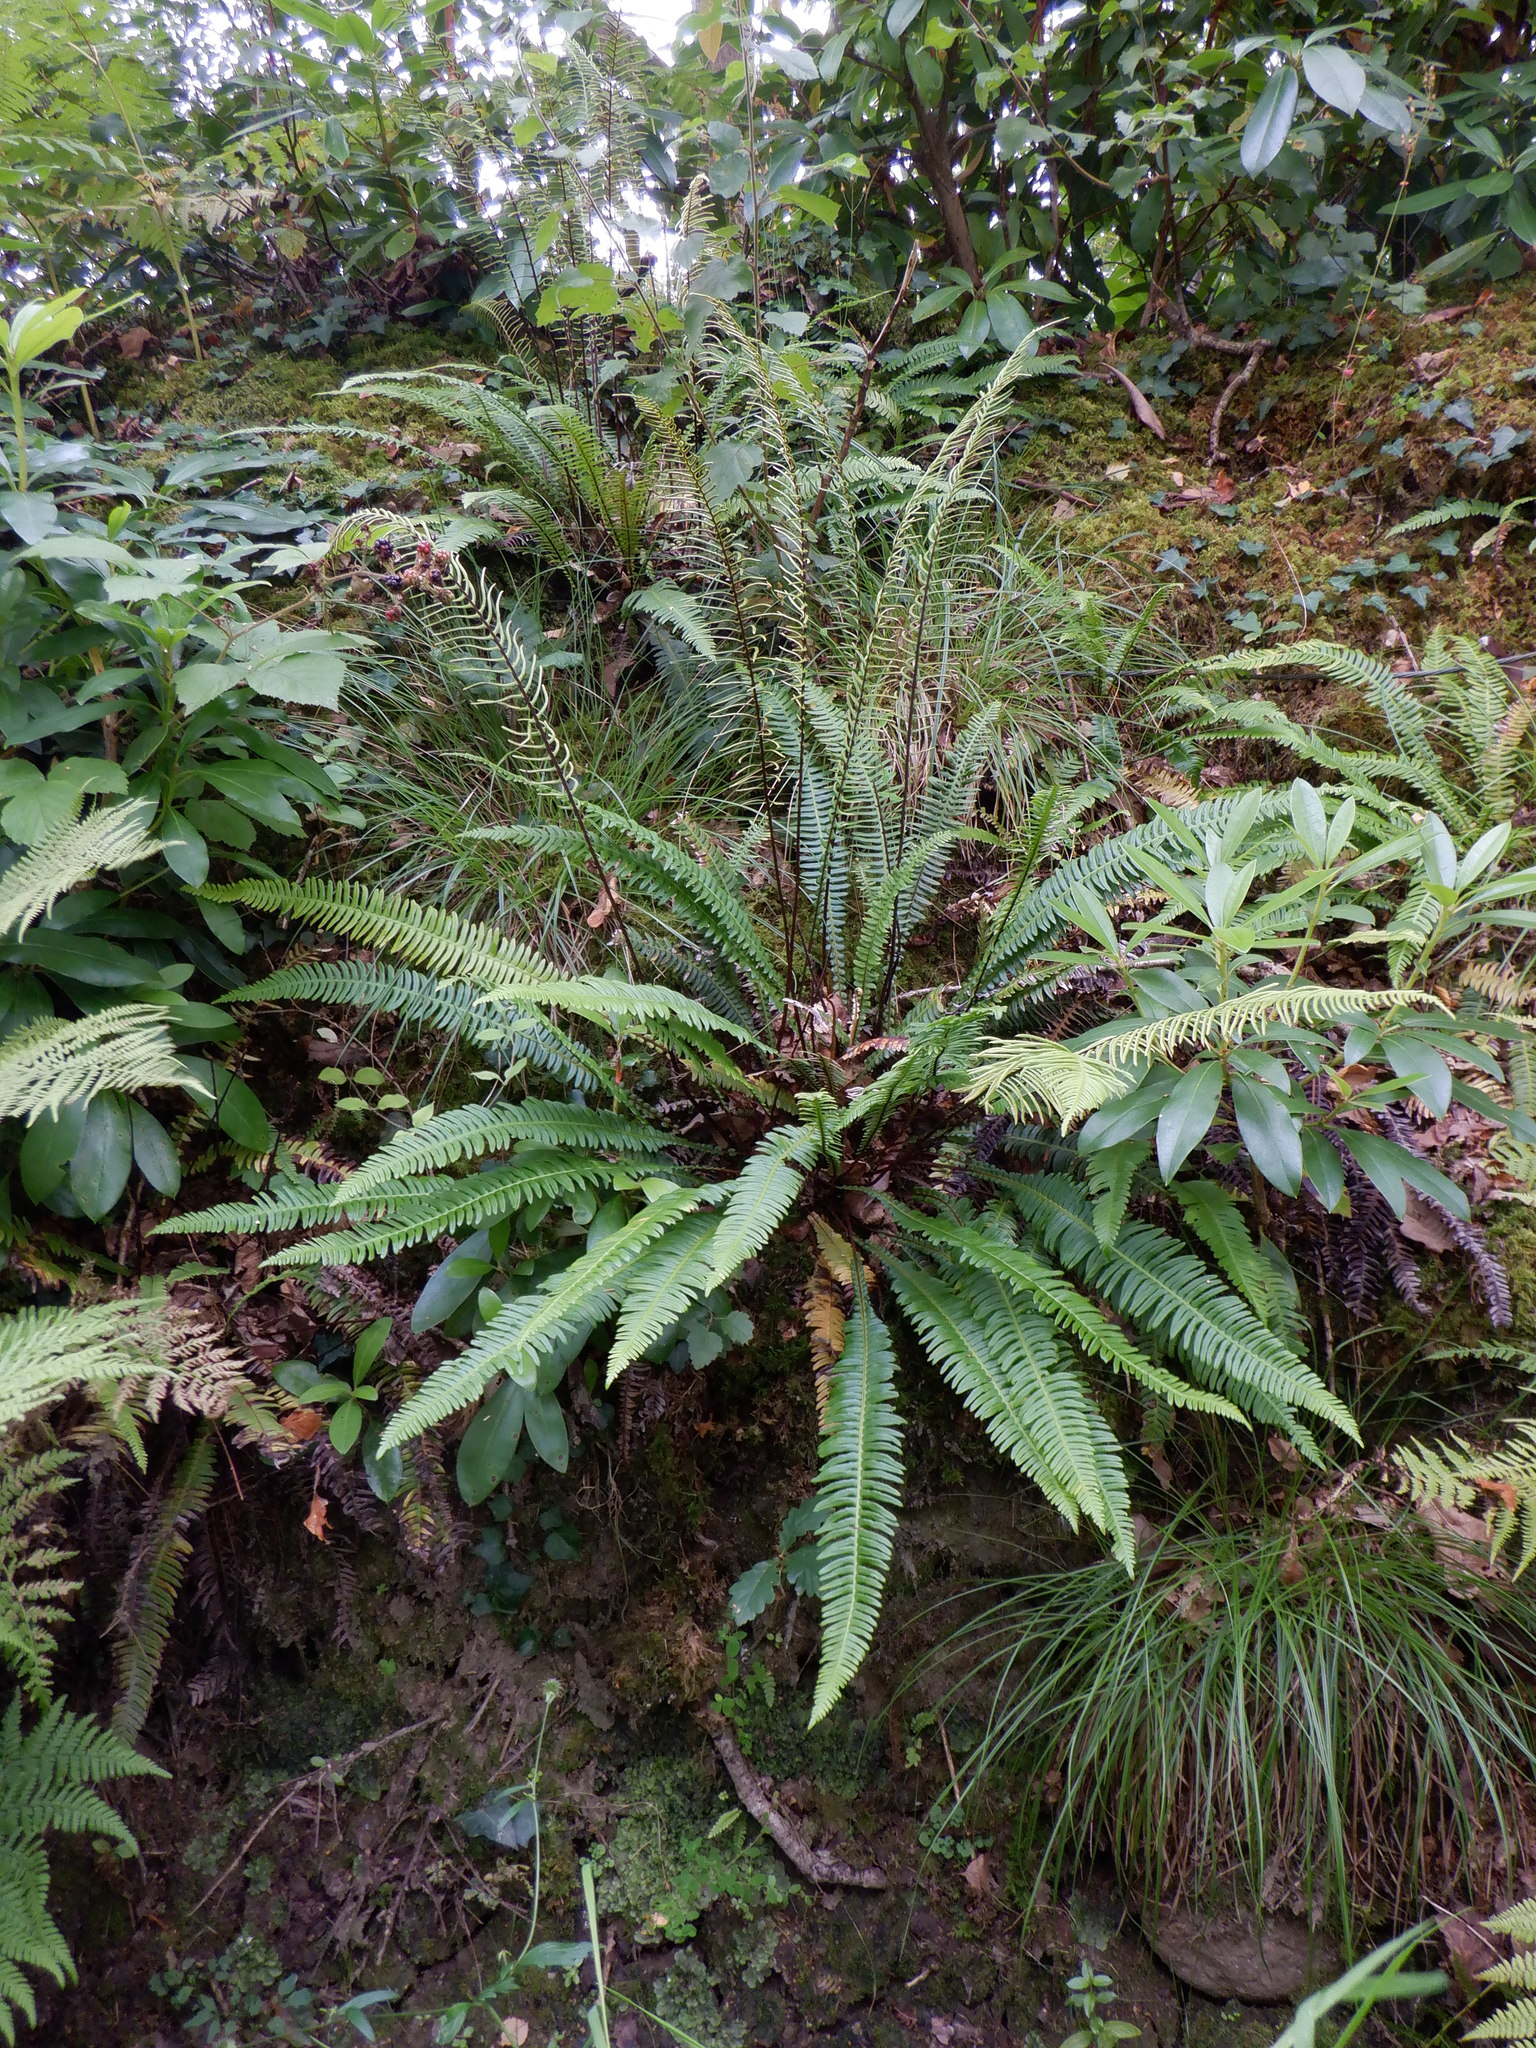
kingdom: Plantae
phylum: Tracheophyta
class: Polypodiopsida
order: Polypodiales
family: Blechnaceae
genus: Struthiopteris
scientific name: Struthiopteris spicant
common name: Deer fern
